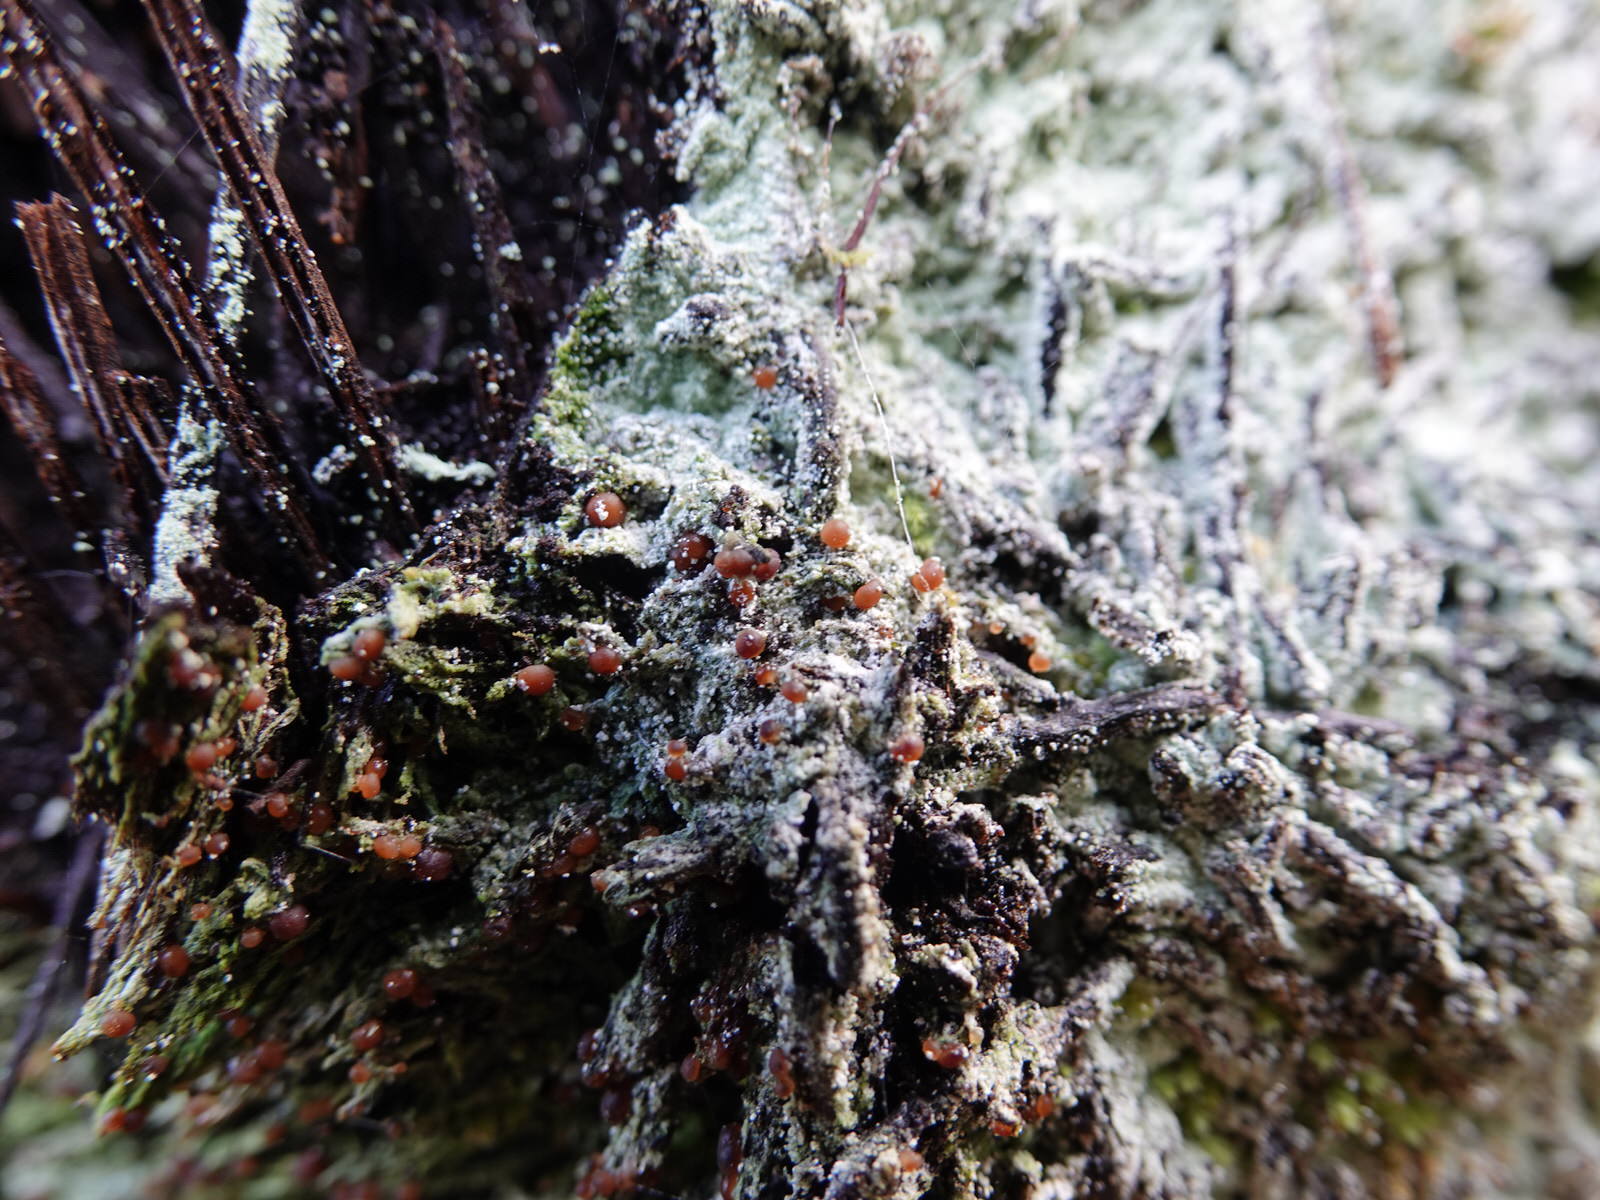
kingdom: Fungi
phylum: Ascomycota
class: Lecanoromycetes
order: Lecanorales
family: Stereocaulaceae
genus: Lepraria
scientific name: Lepraria lobificans
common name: Fluffy dust lichen
